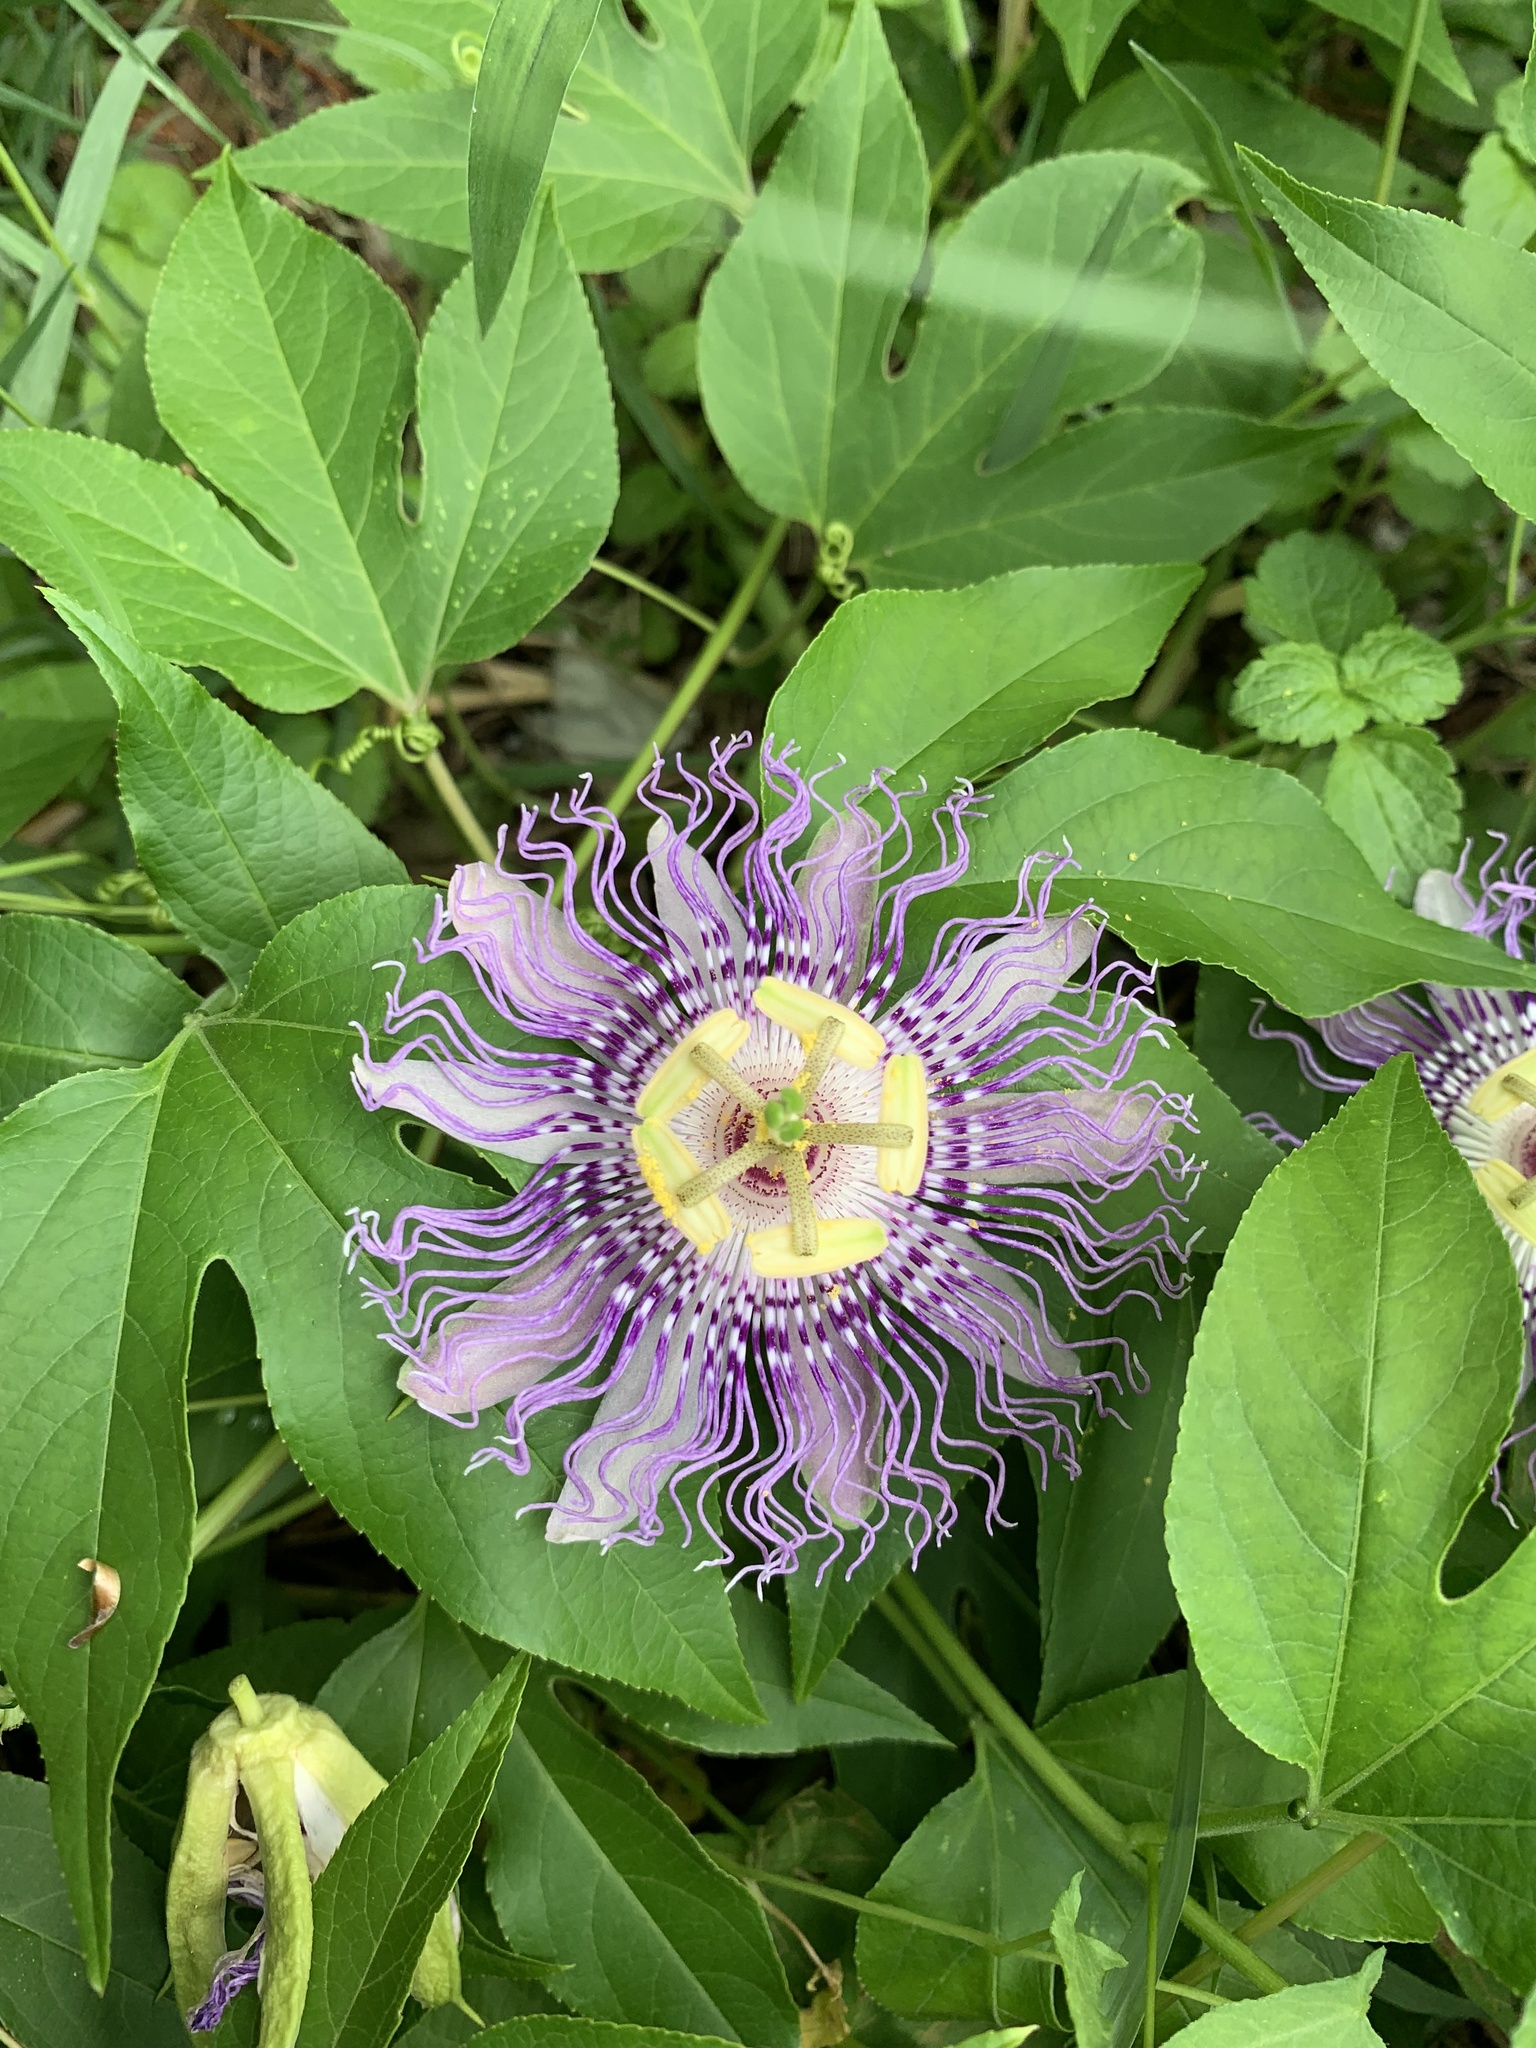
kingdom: Plantae
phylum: Tracheophyta
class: Magnoliopsida
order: Malpighiales
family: Passifloraceae
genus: Passiflora
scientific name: Passiflora incarnata
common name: Apricot-vine
